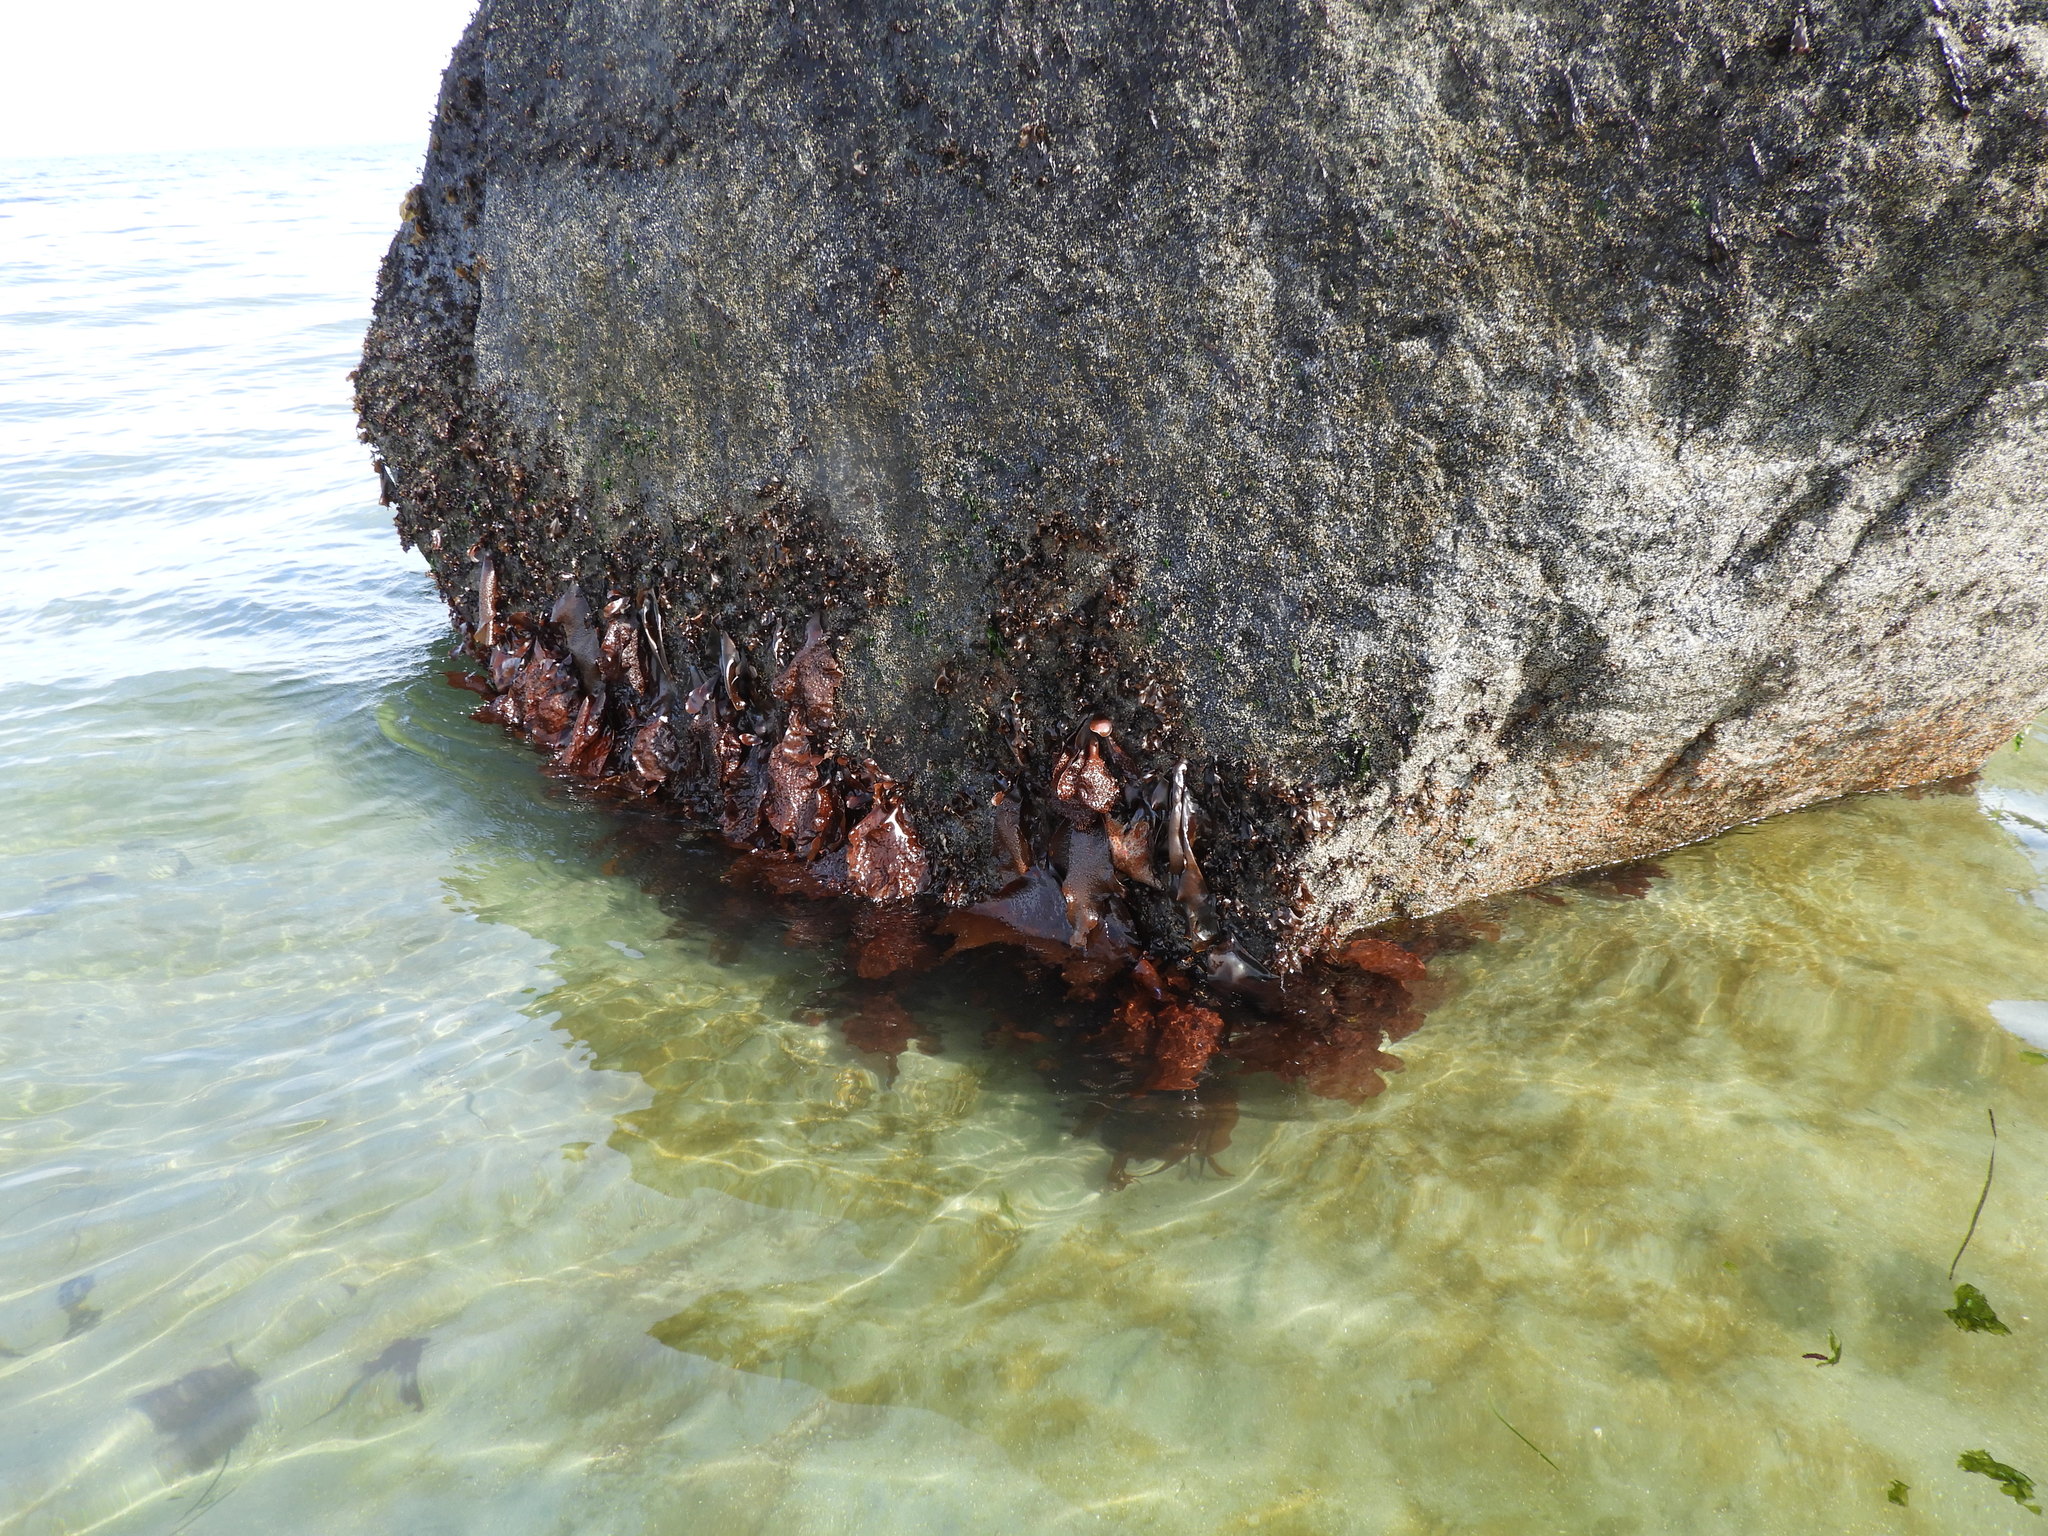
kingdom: Plantae
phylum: Rhodophyta
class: Florideophyceae
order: Gigartinales
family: Gigartinaceae
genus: Chondracanthus
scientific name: Chondracanthus exasperatus
